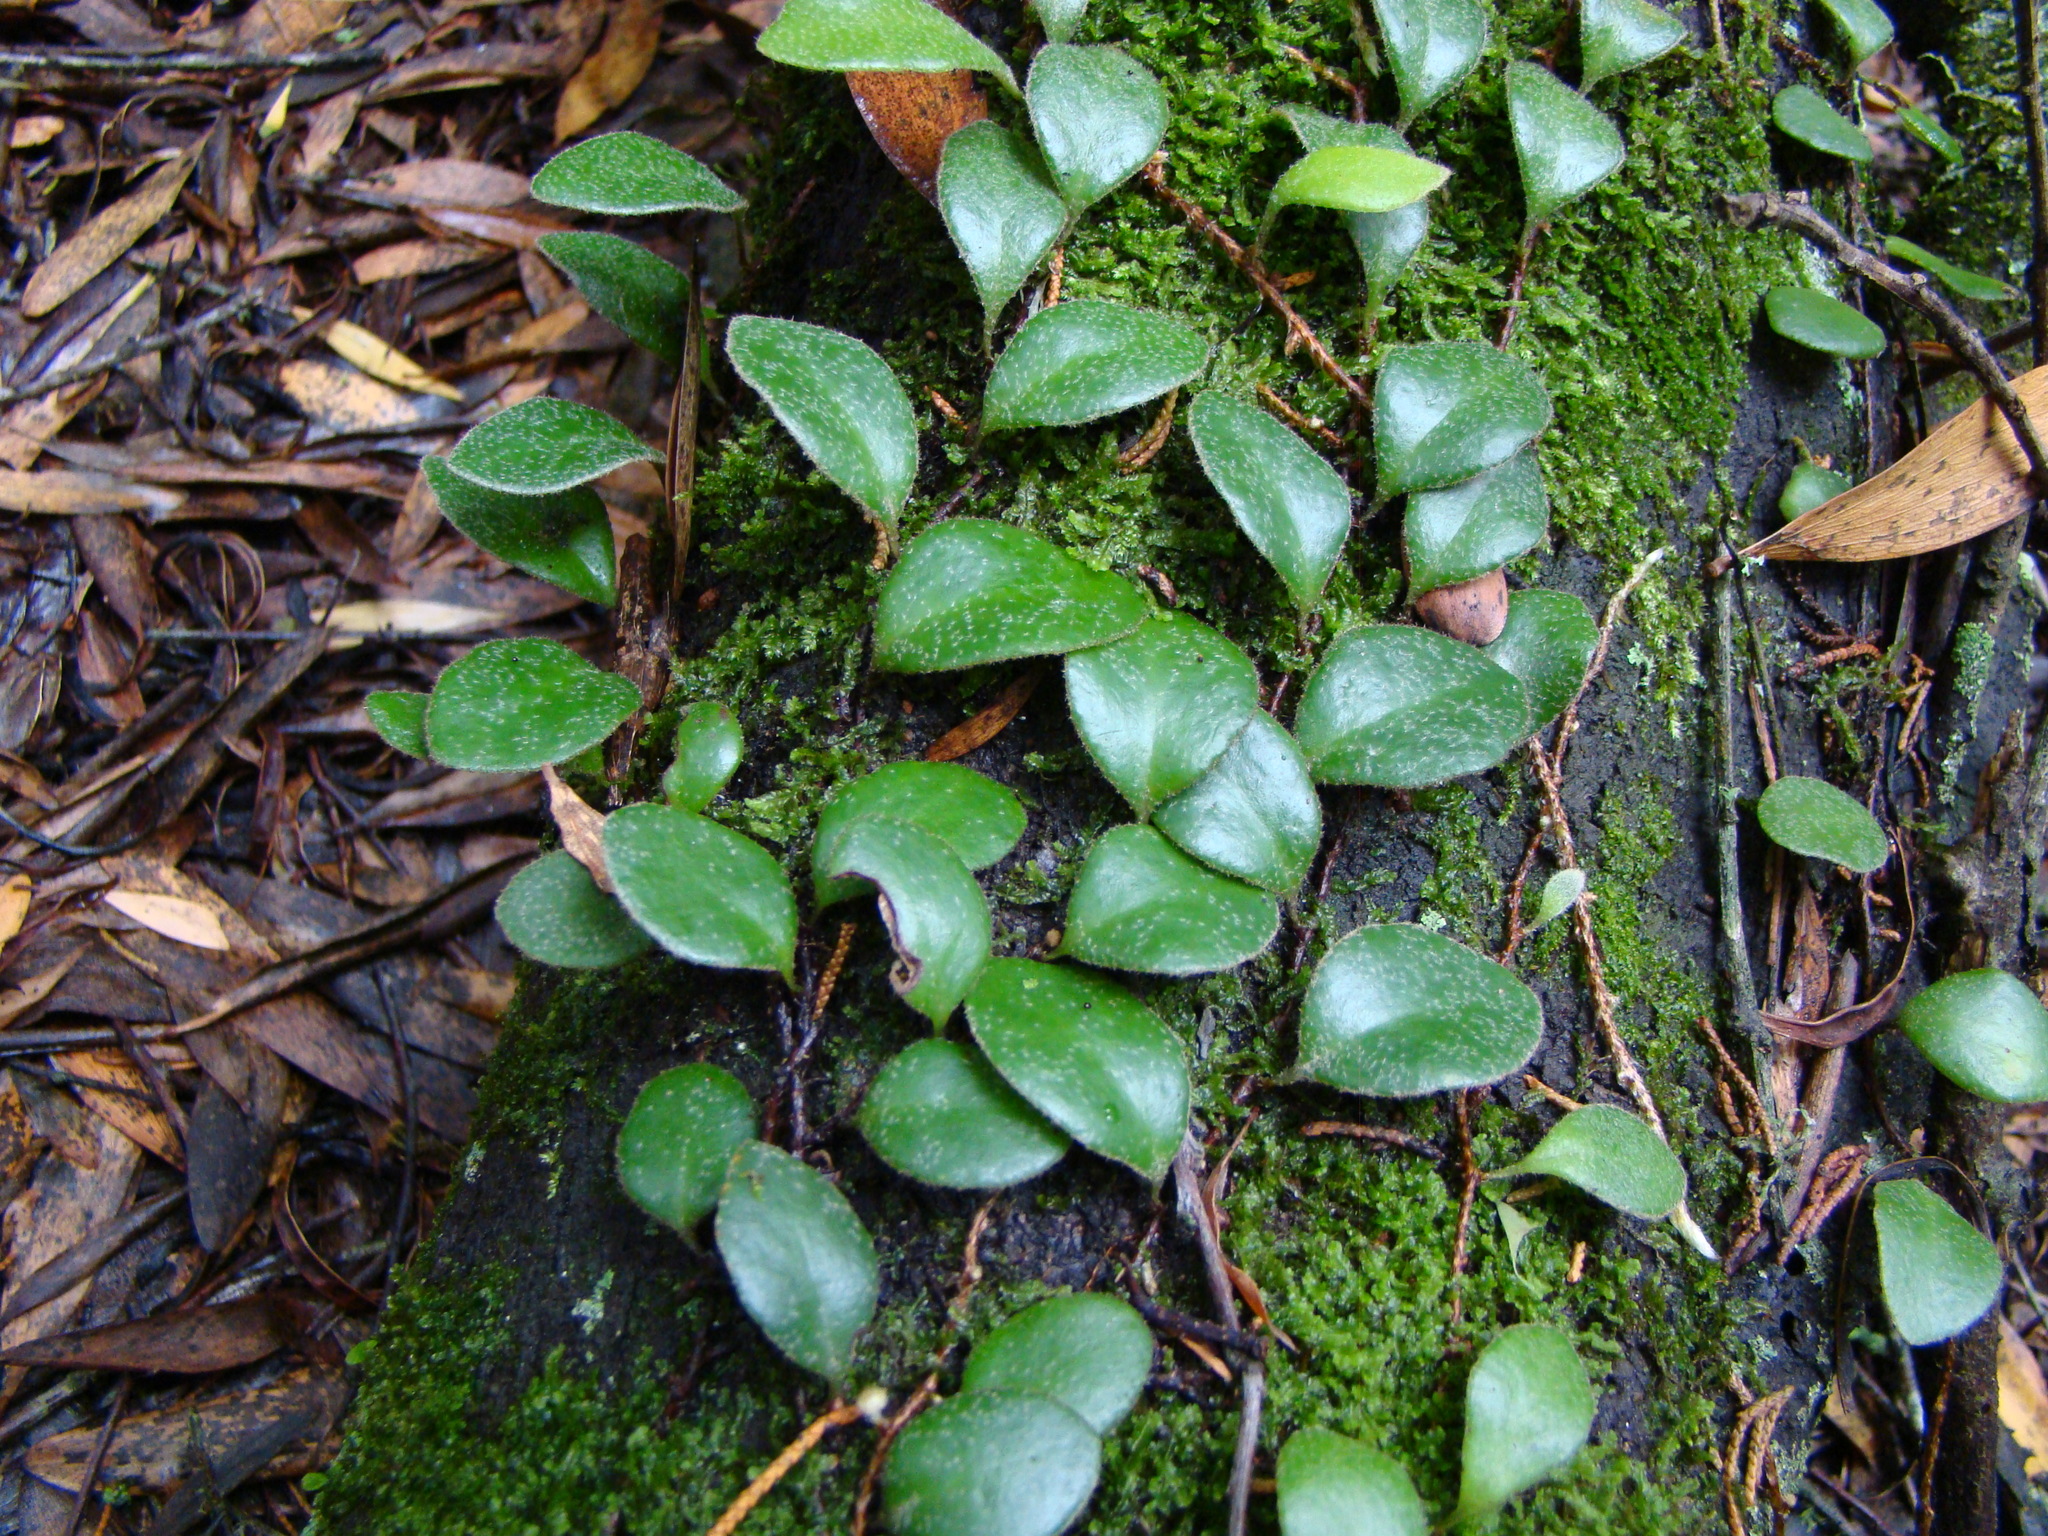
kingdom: Plantae
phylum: Tracheophyta
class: Polypodiopsida
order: Polypodiales
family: Polypodiaceae
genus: Pyrrosia
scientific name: Pyrrosia eleagnifolia
